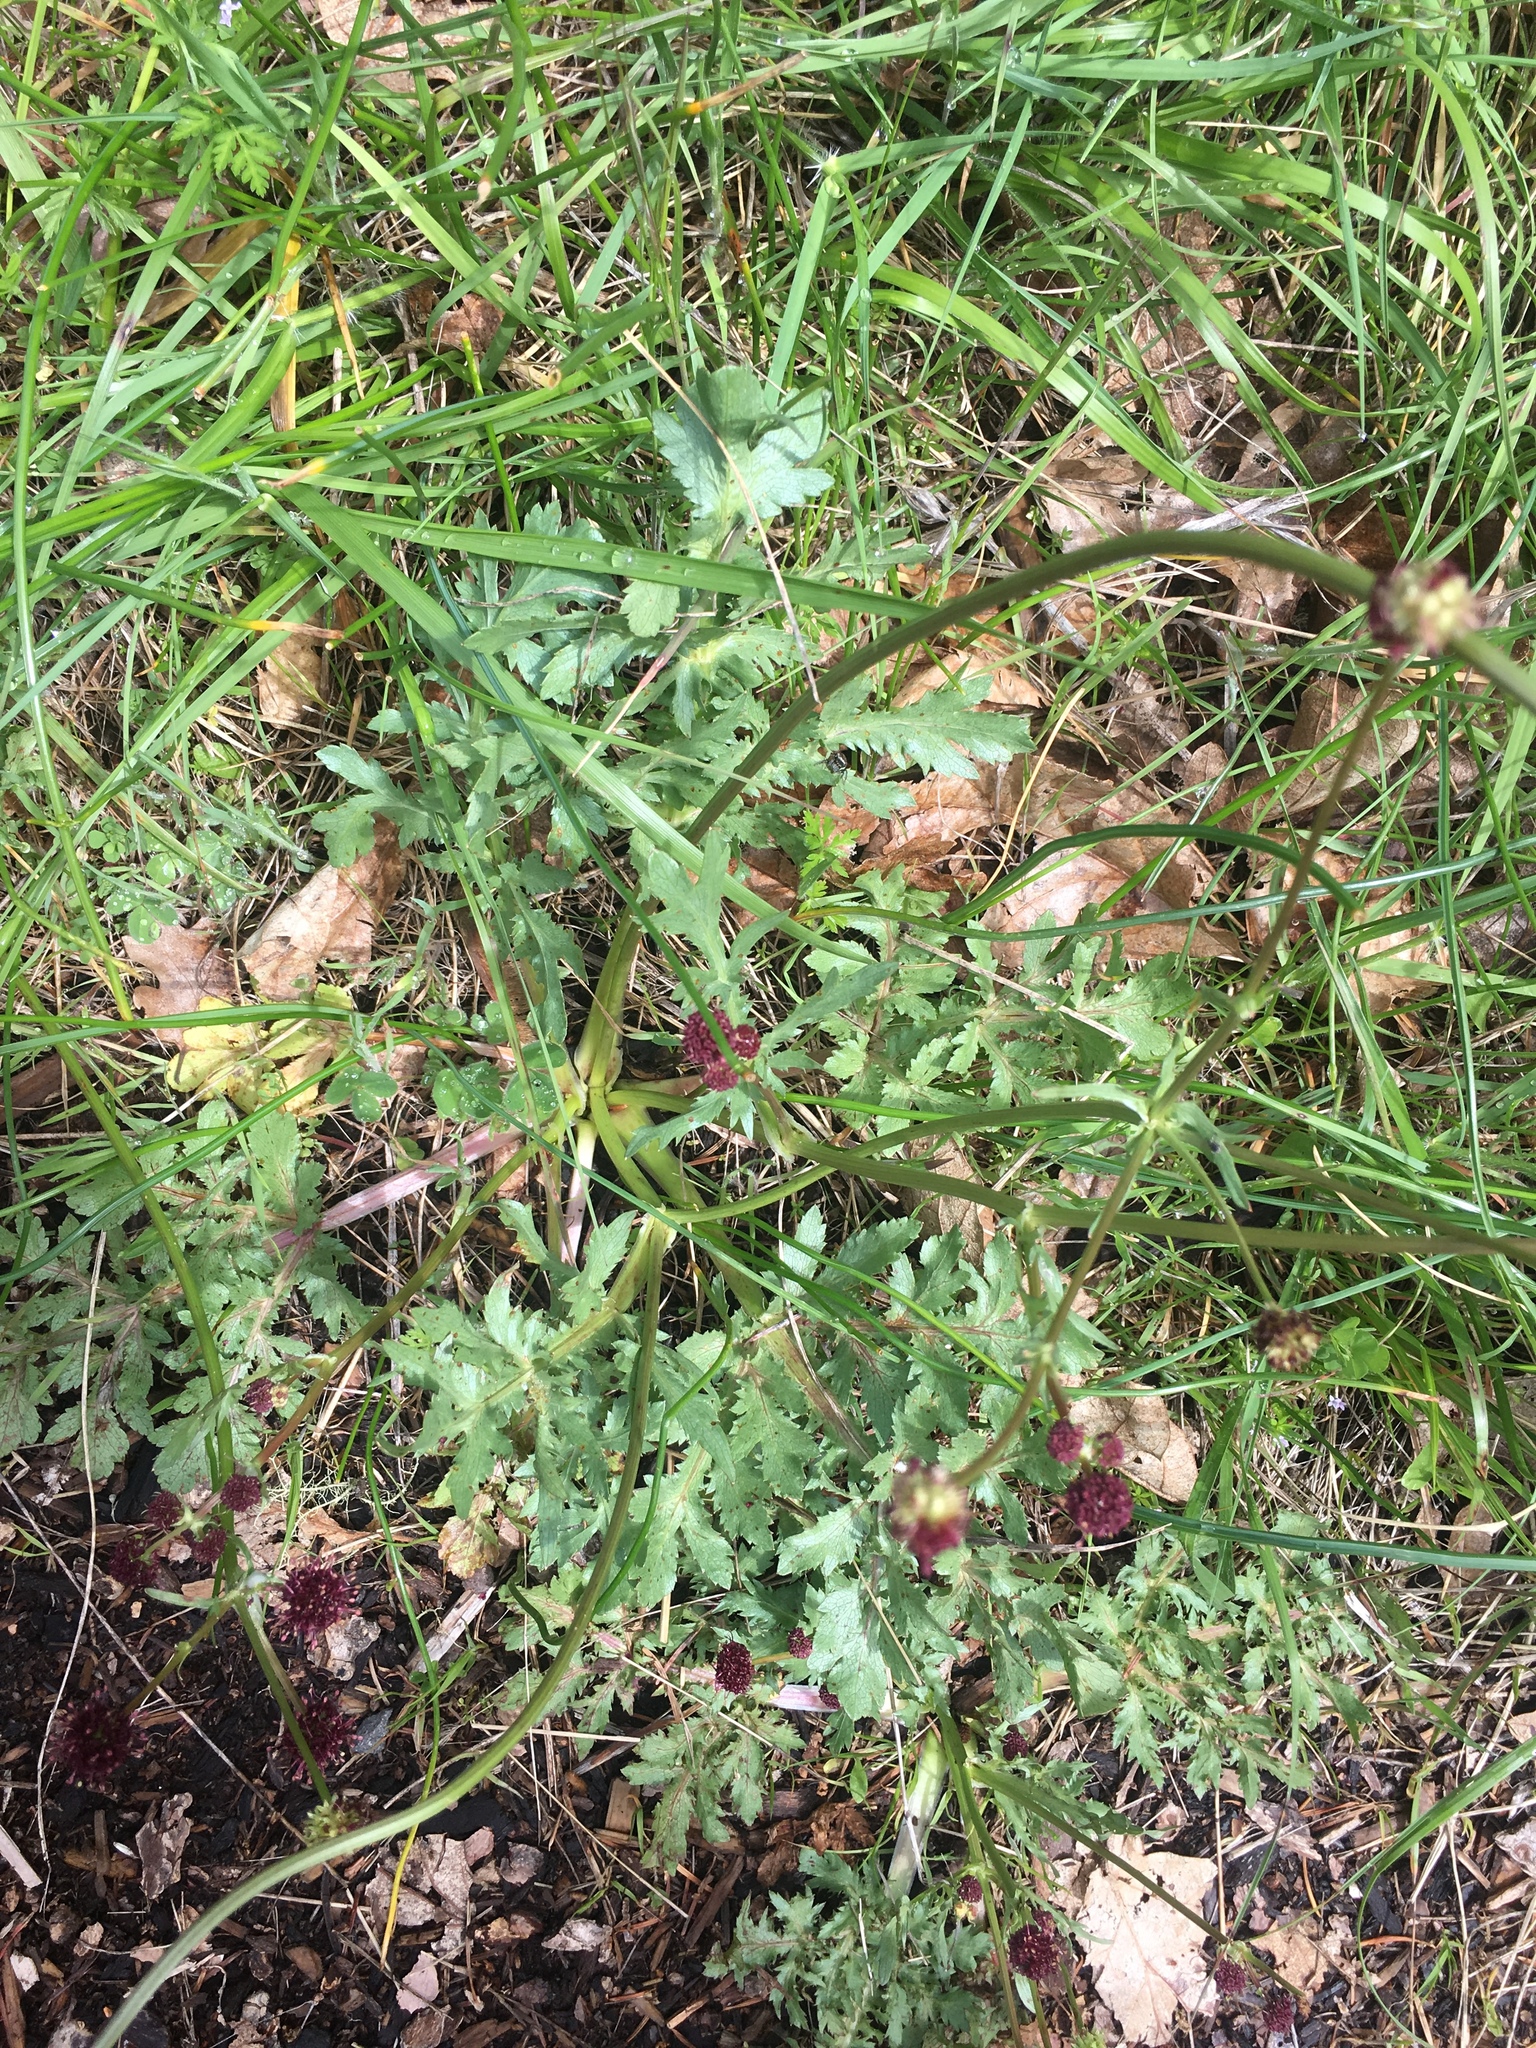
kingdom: Plantae
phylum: Tracheophyta
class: Magnoliopsida
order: Apiales
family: Apiaceae
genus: Sanicula
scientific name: Sanicula bipinnatifida
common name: Shoe-buttons
